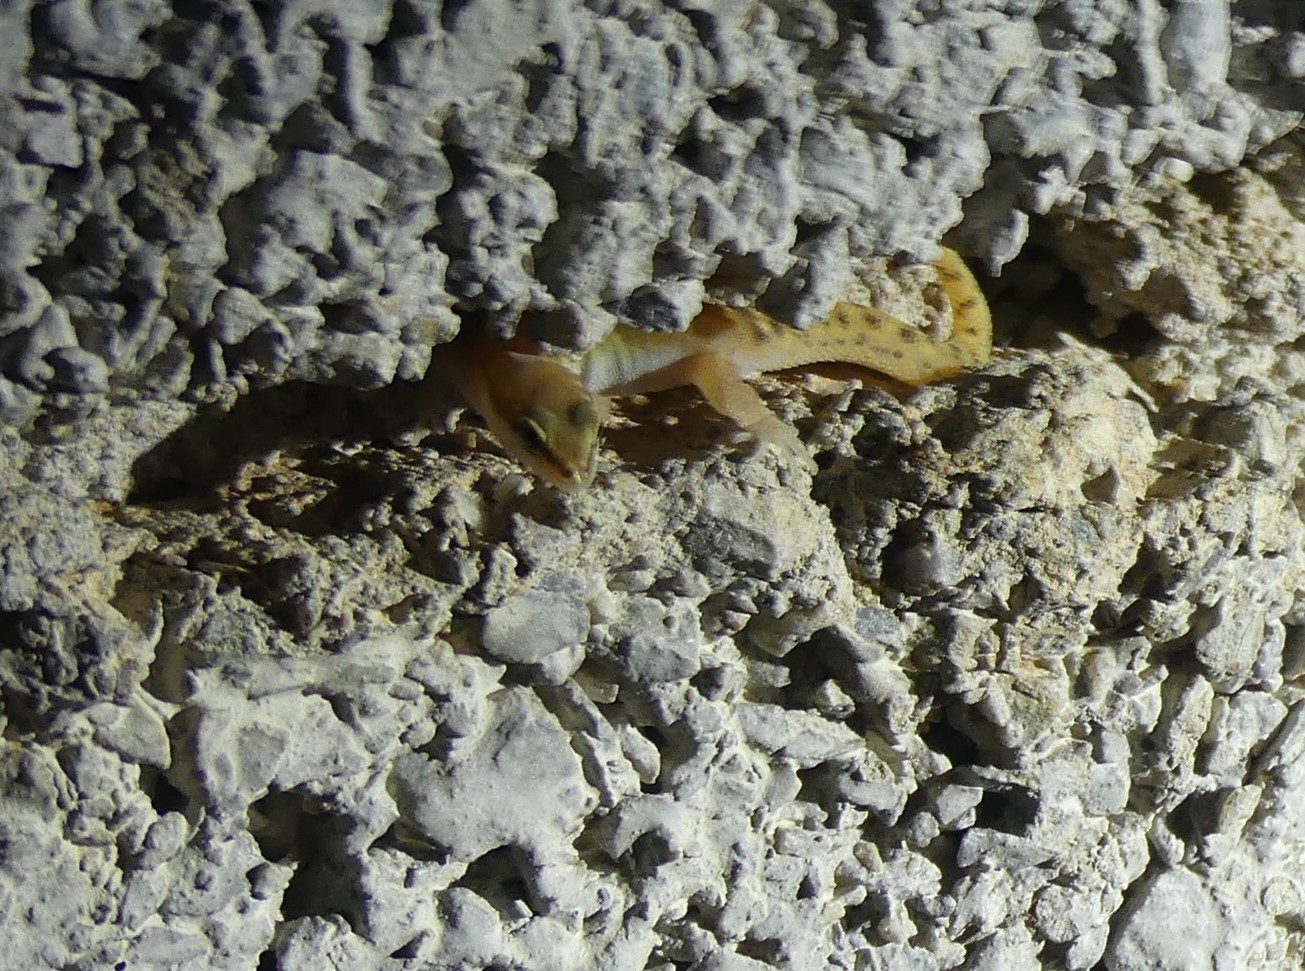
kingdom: Animalia
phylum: Chordata
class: Squamata
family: Sphaerodactylidae
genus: Saurodactylus
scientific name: Saurodactylus brosseti
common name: Morocco lizard-fingered gecko
